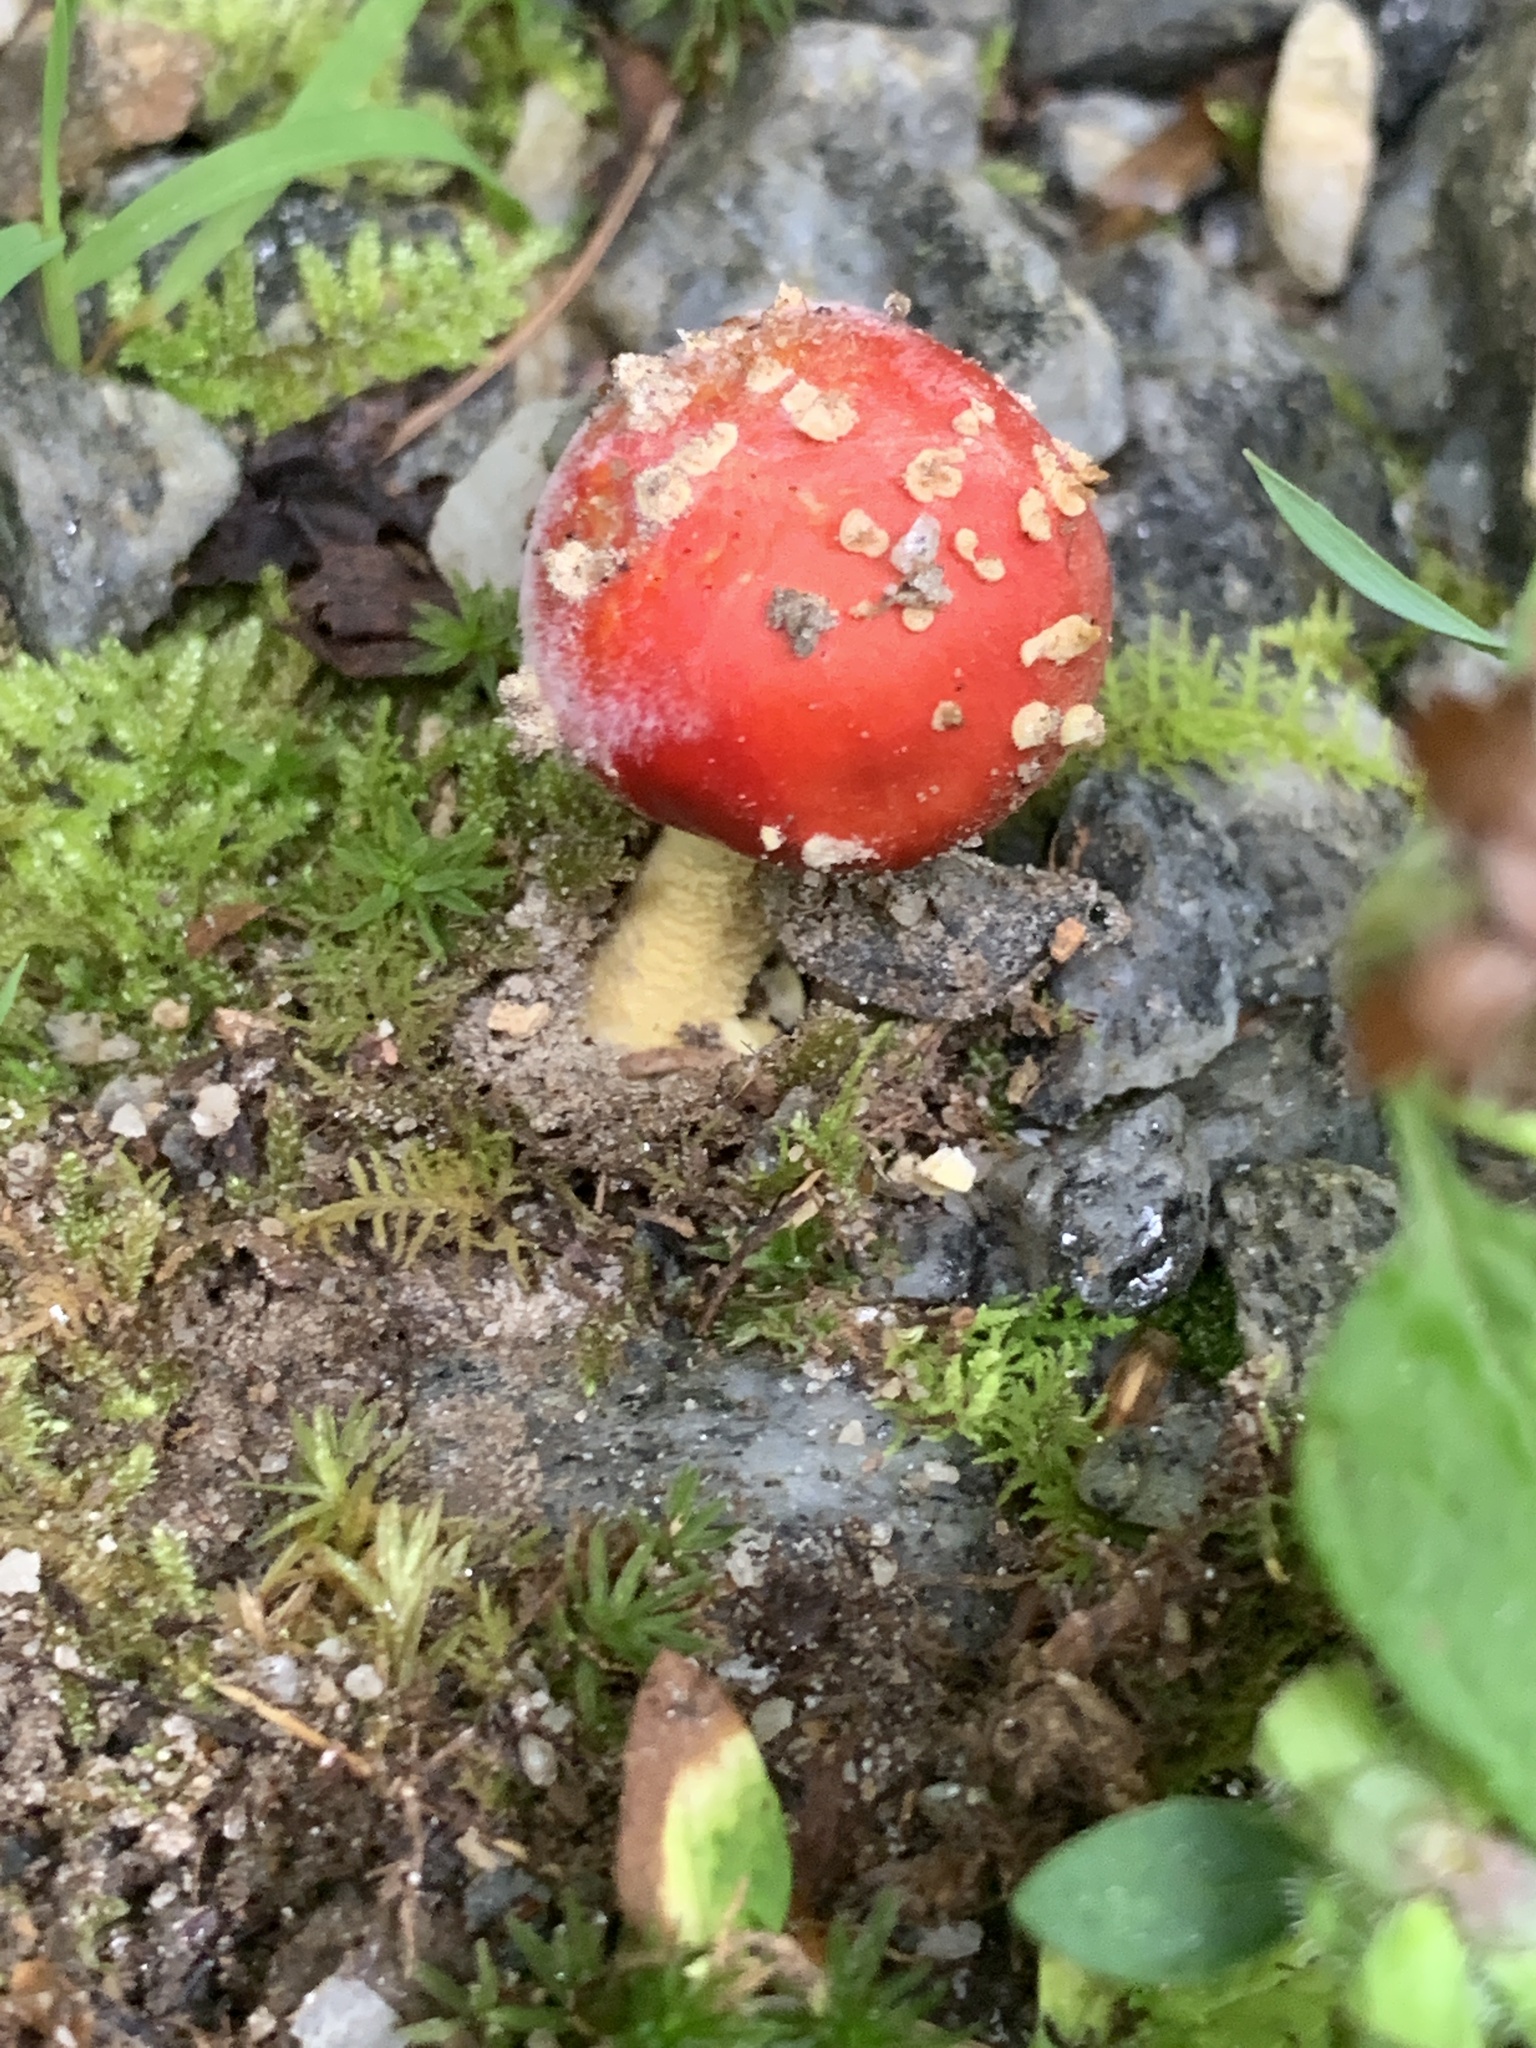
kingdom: Fungi
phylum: Basidiomycota
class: Agaricomycetes
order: Agaricales
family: Amanitaceae
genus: Amanita
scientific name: Amanita parcivolvata
